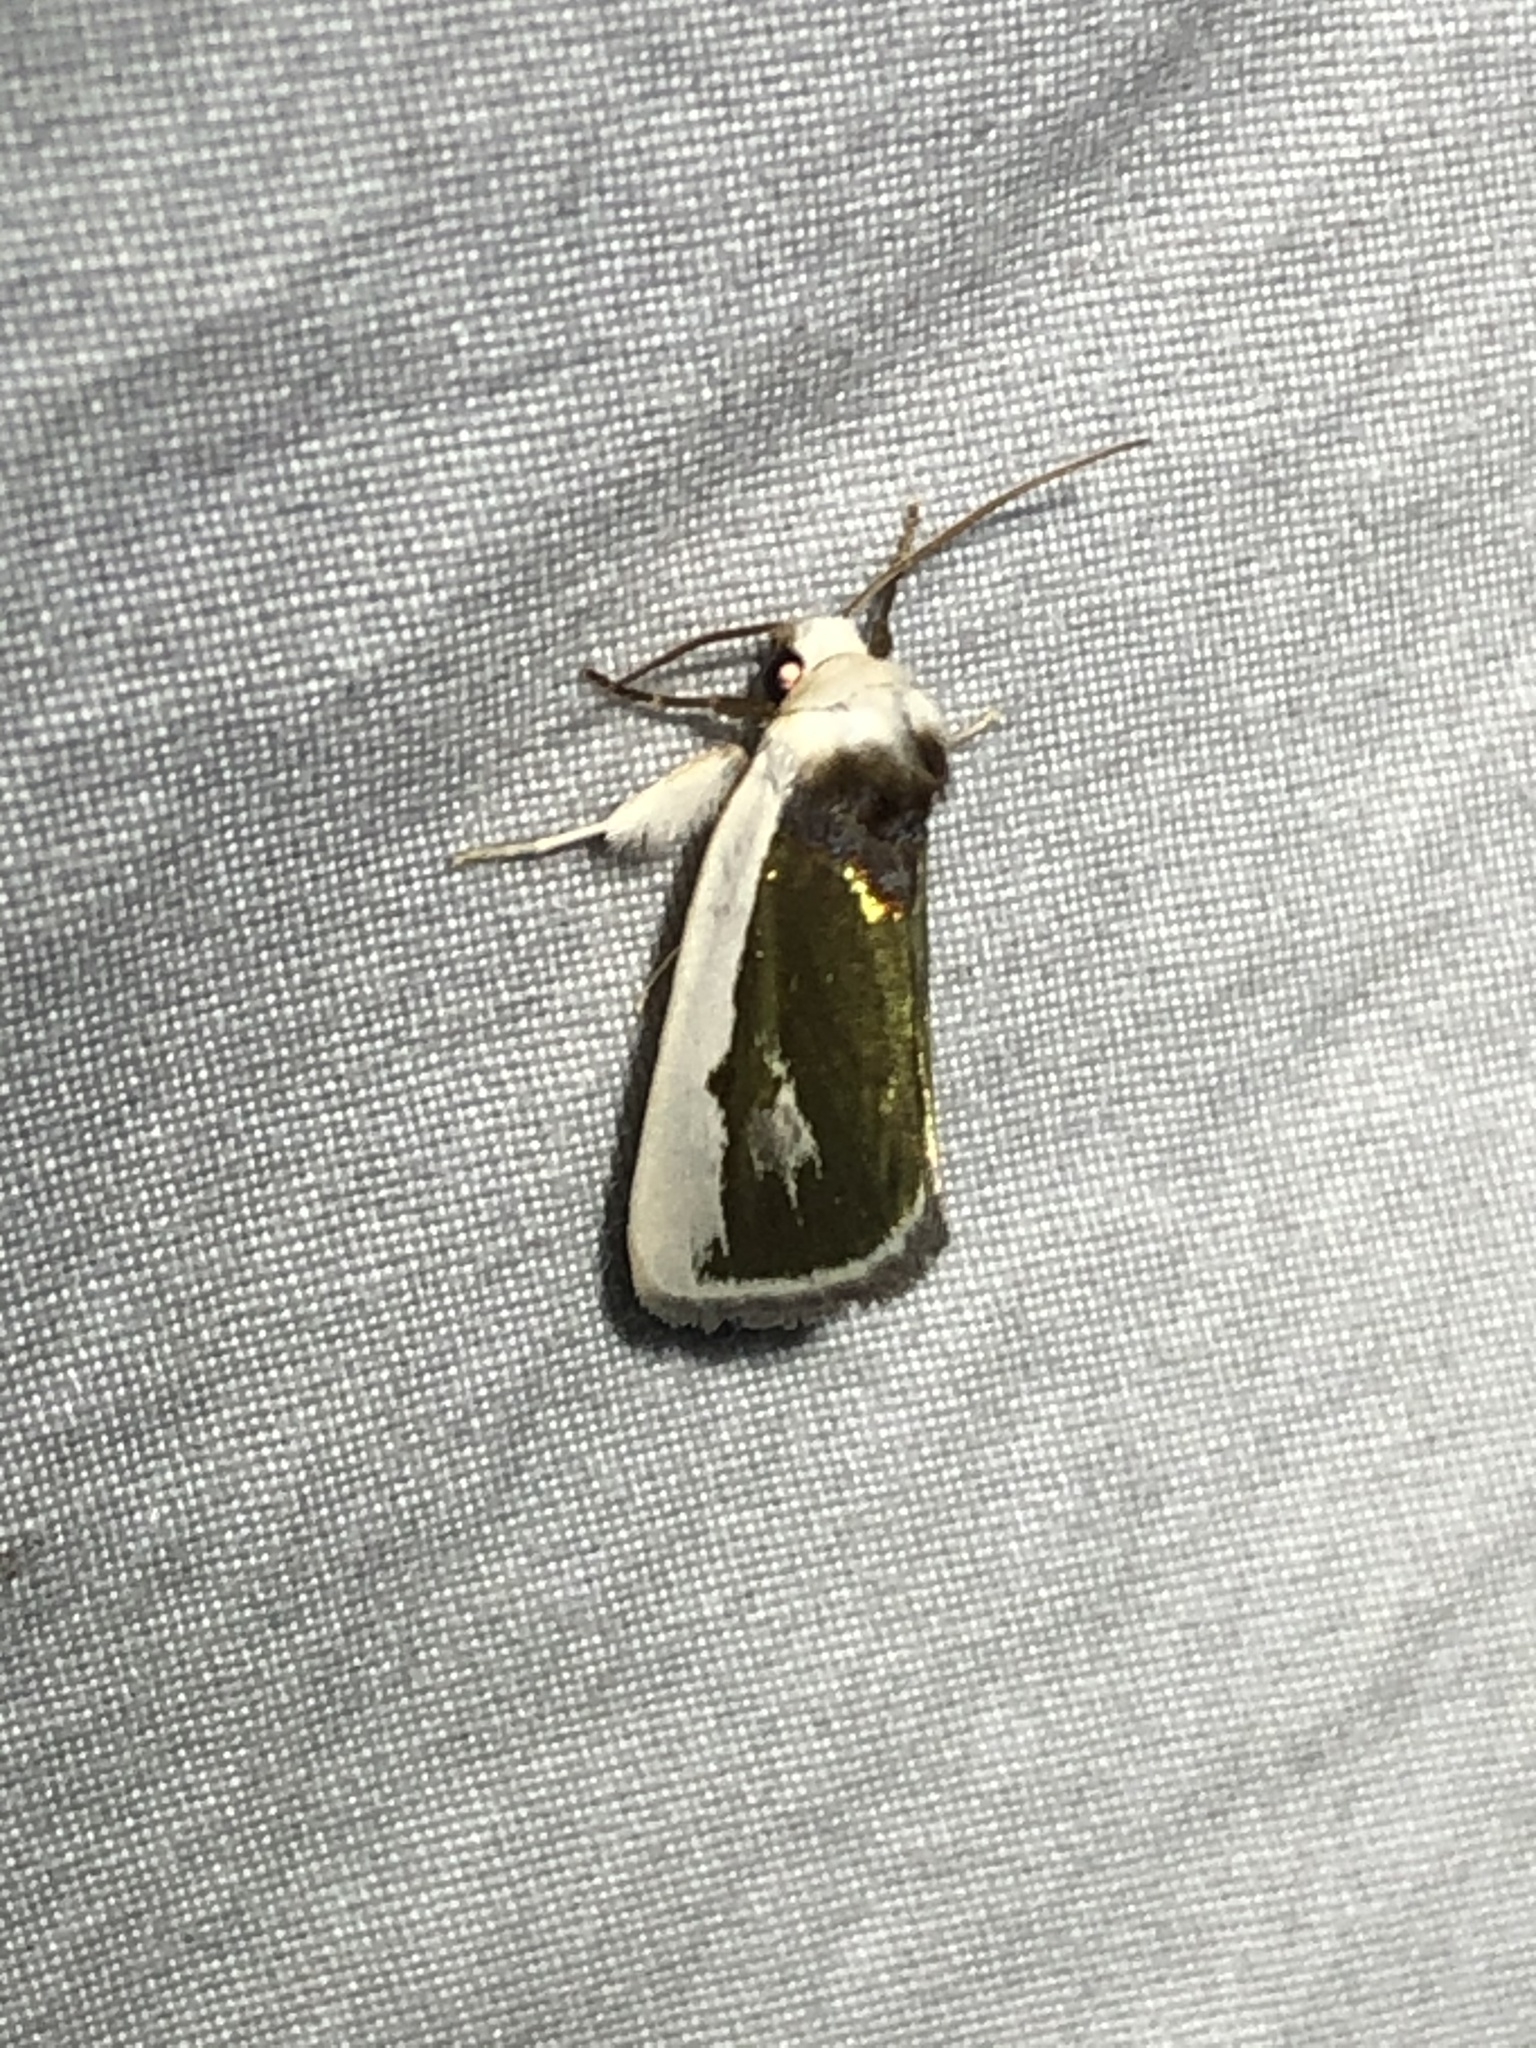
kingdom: Animalia
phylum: Arthropoda
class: Insecta
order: Lepidoptera
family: Noctuidae
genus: Neumoegenia
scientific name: Neumoegenia poetica
